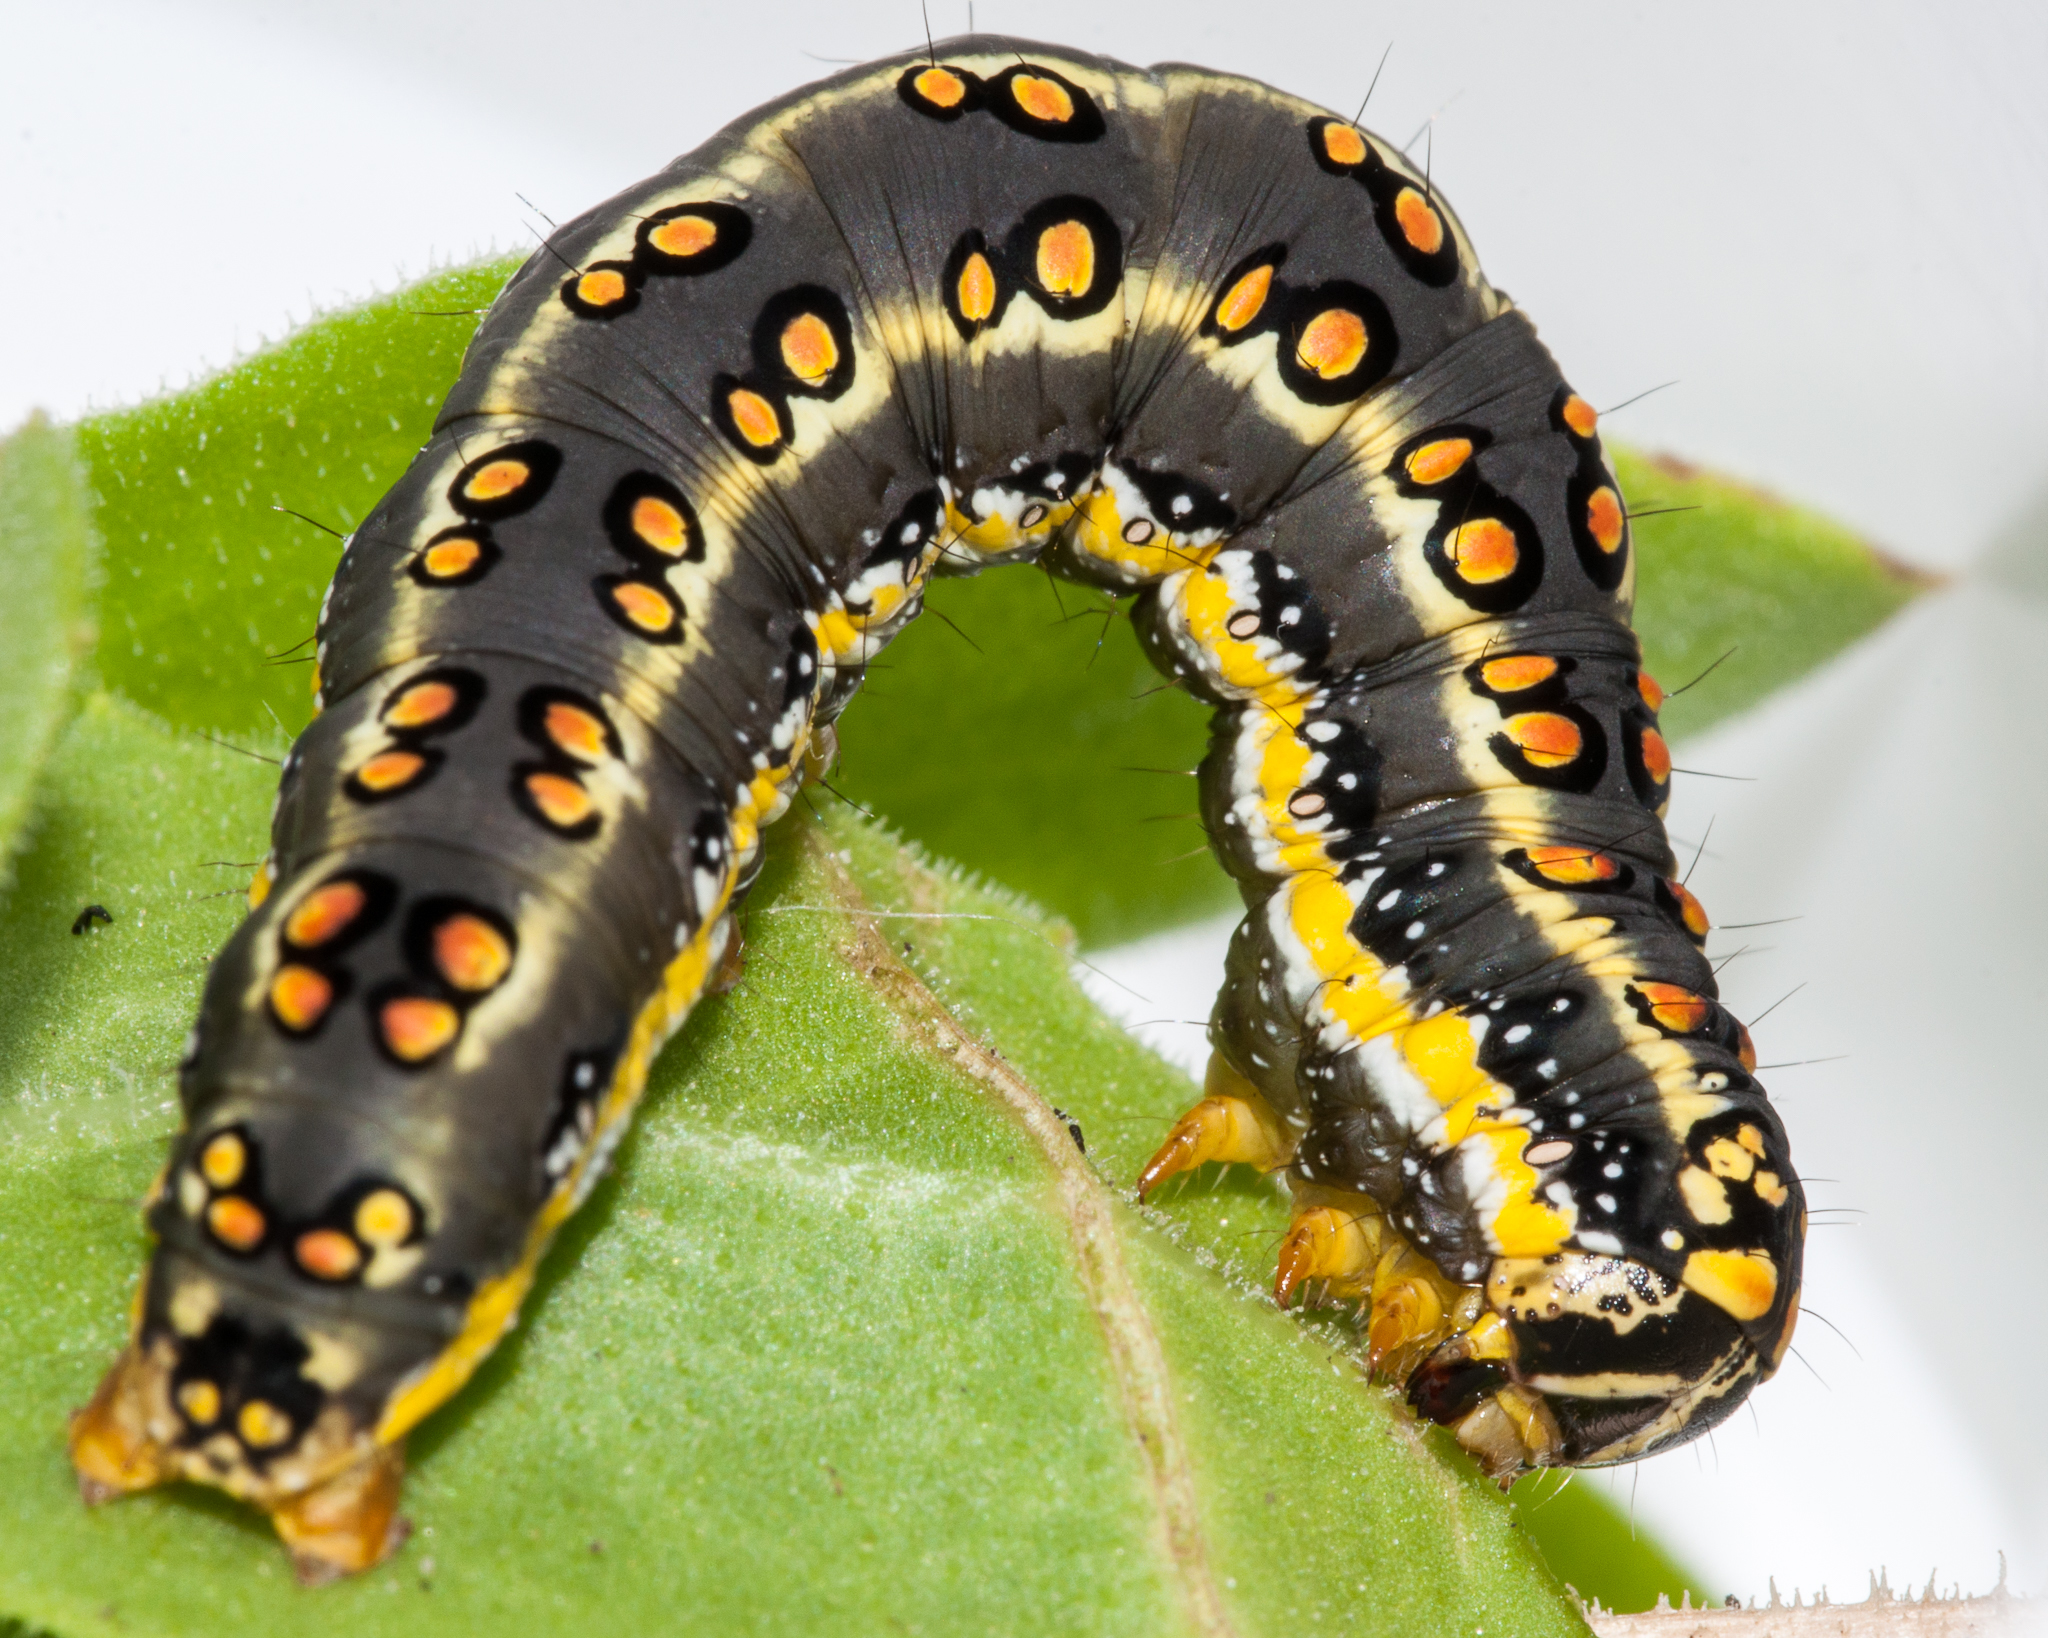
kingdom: Animalia
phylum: Arthropoda
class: Insecta
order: Lepidoptera
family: Noctuidae
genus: Cucullia
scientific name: Cucullia inaequalis
